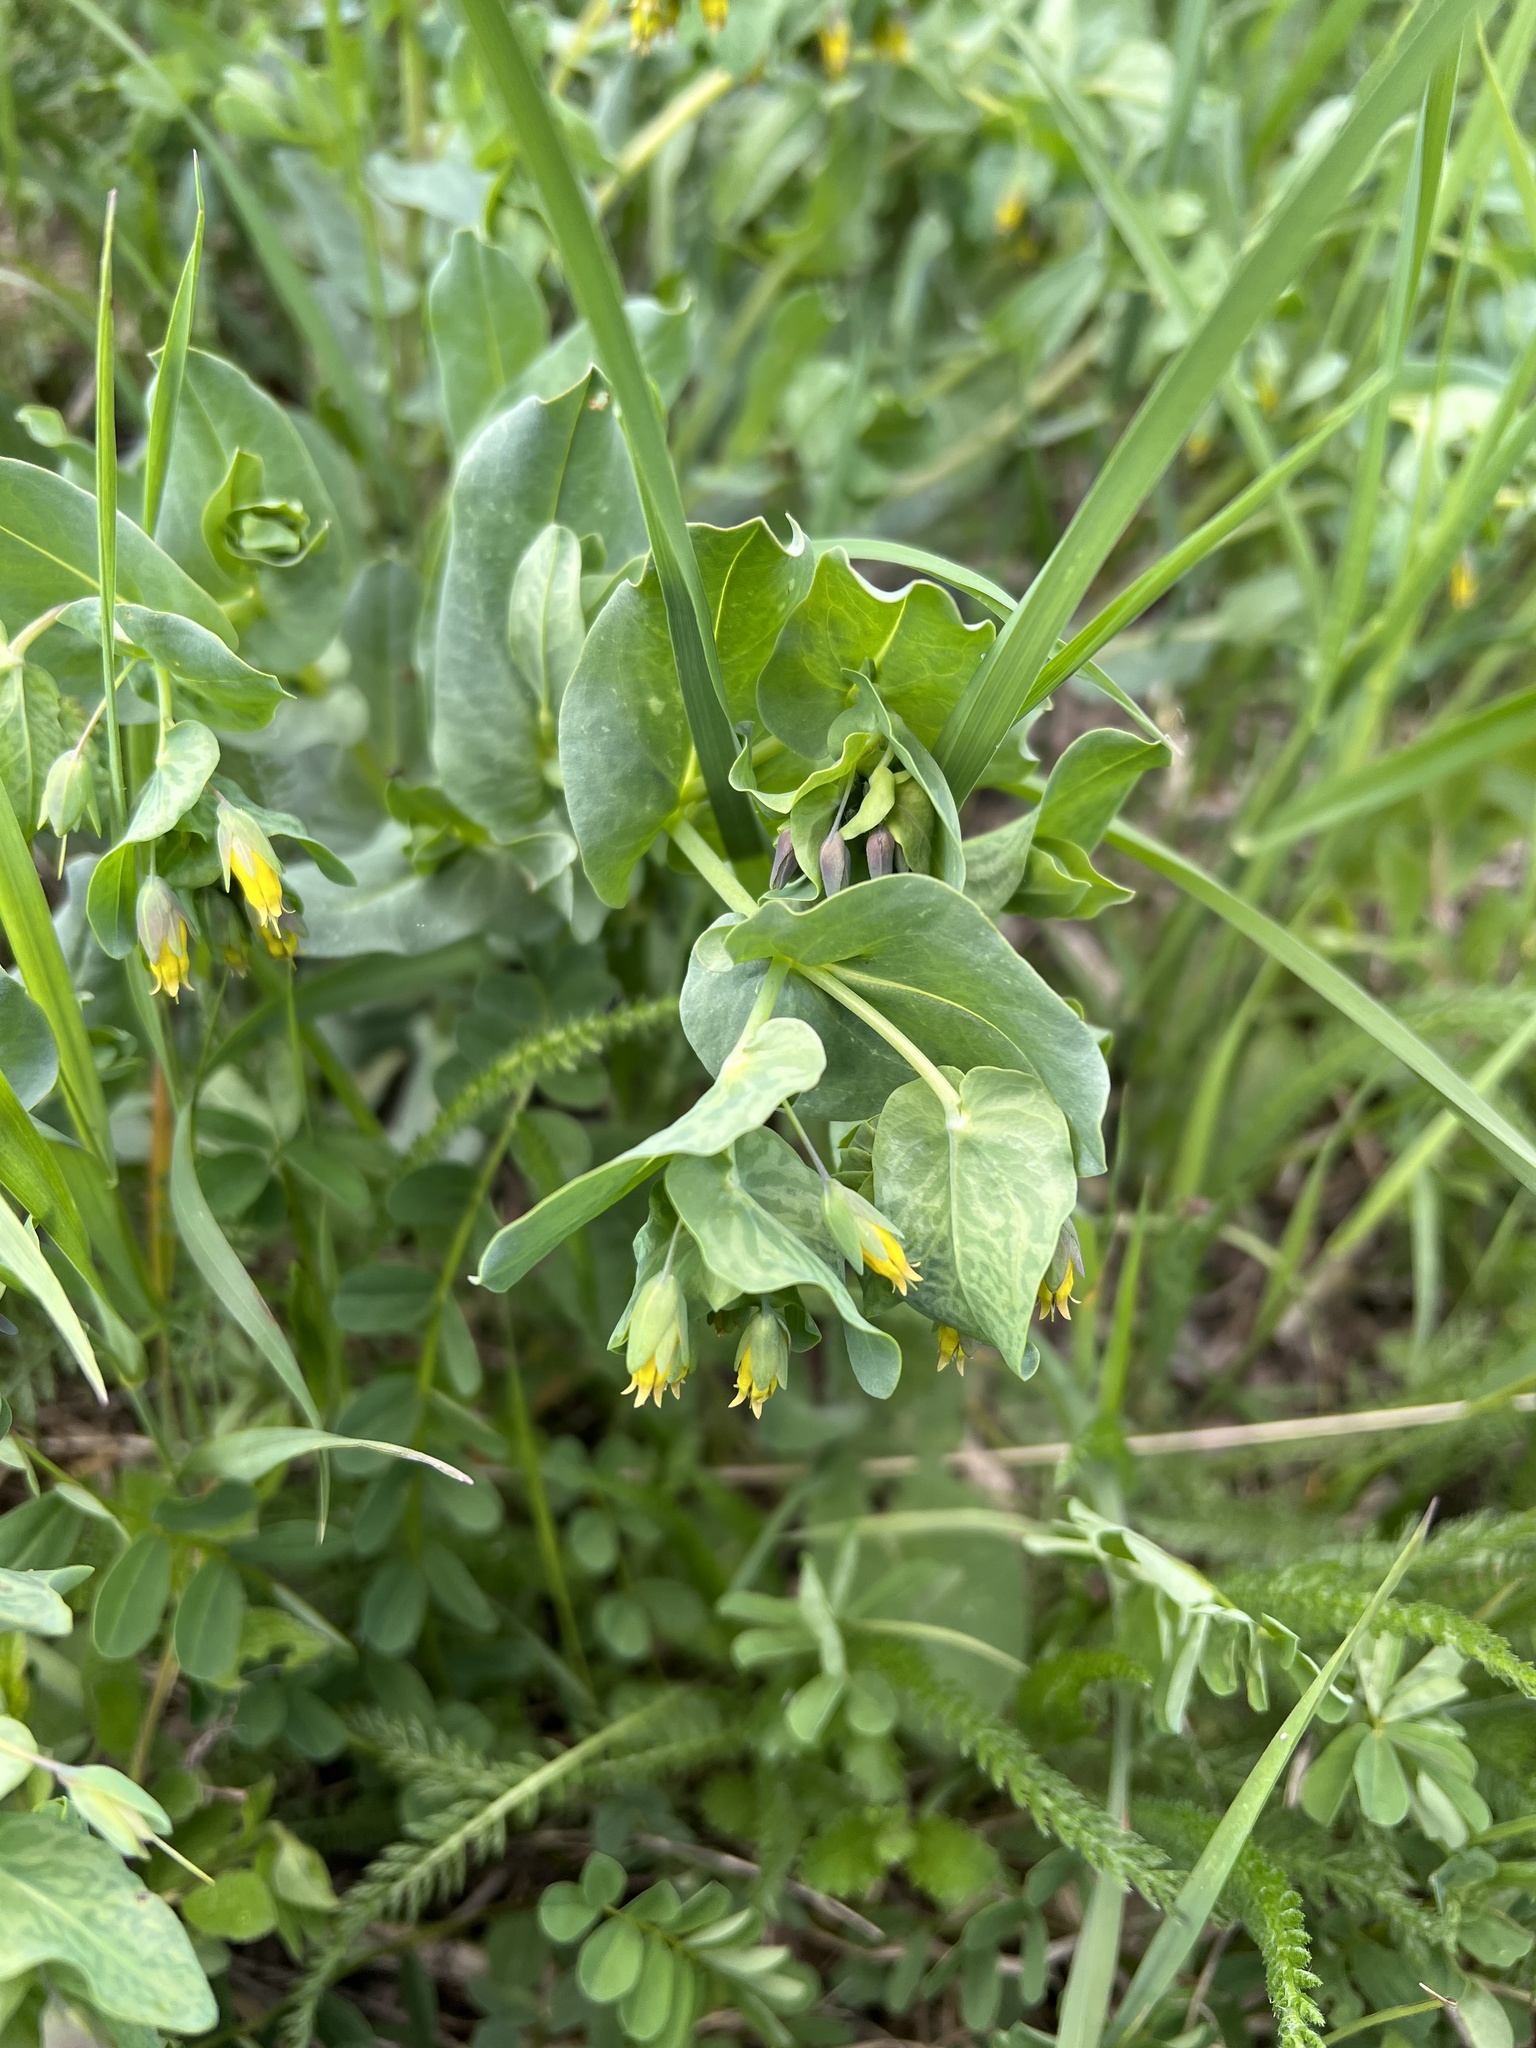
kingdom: Plantae
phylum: Tracheophyta
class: Magnoliopsida
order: Boraginales
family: Boraginaceae
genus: Cerinthe
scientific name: Cerinthe minor
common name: Lesser honeywort
